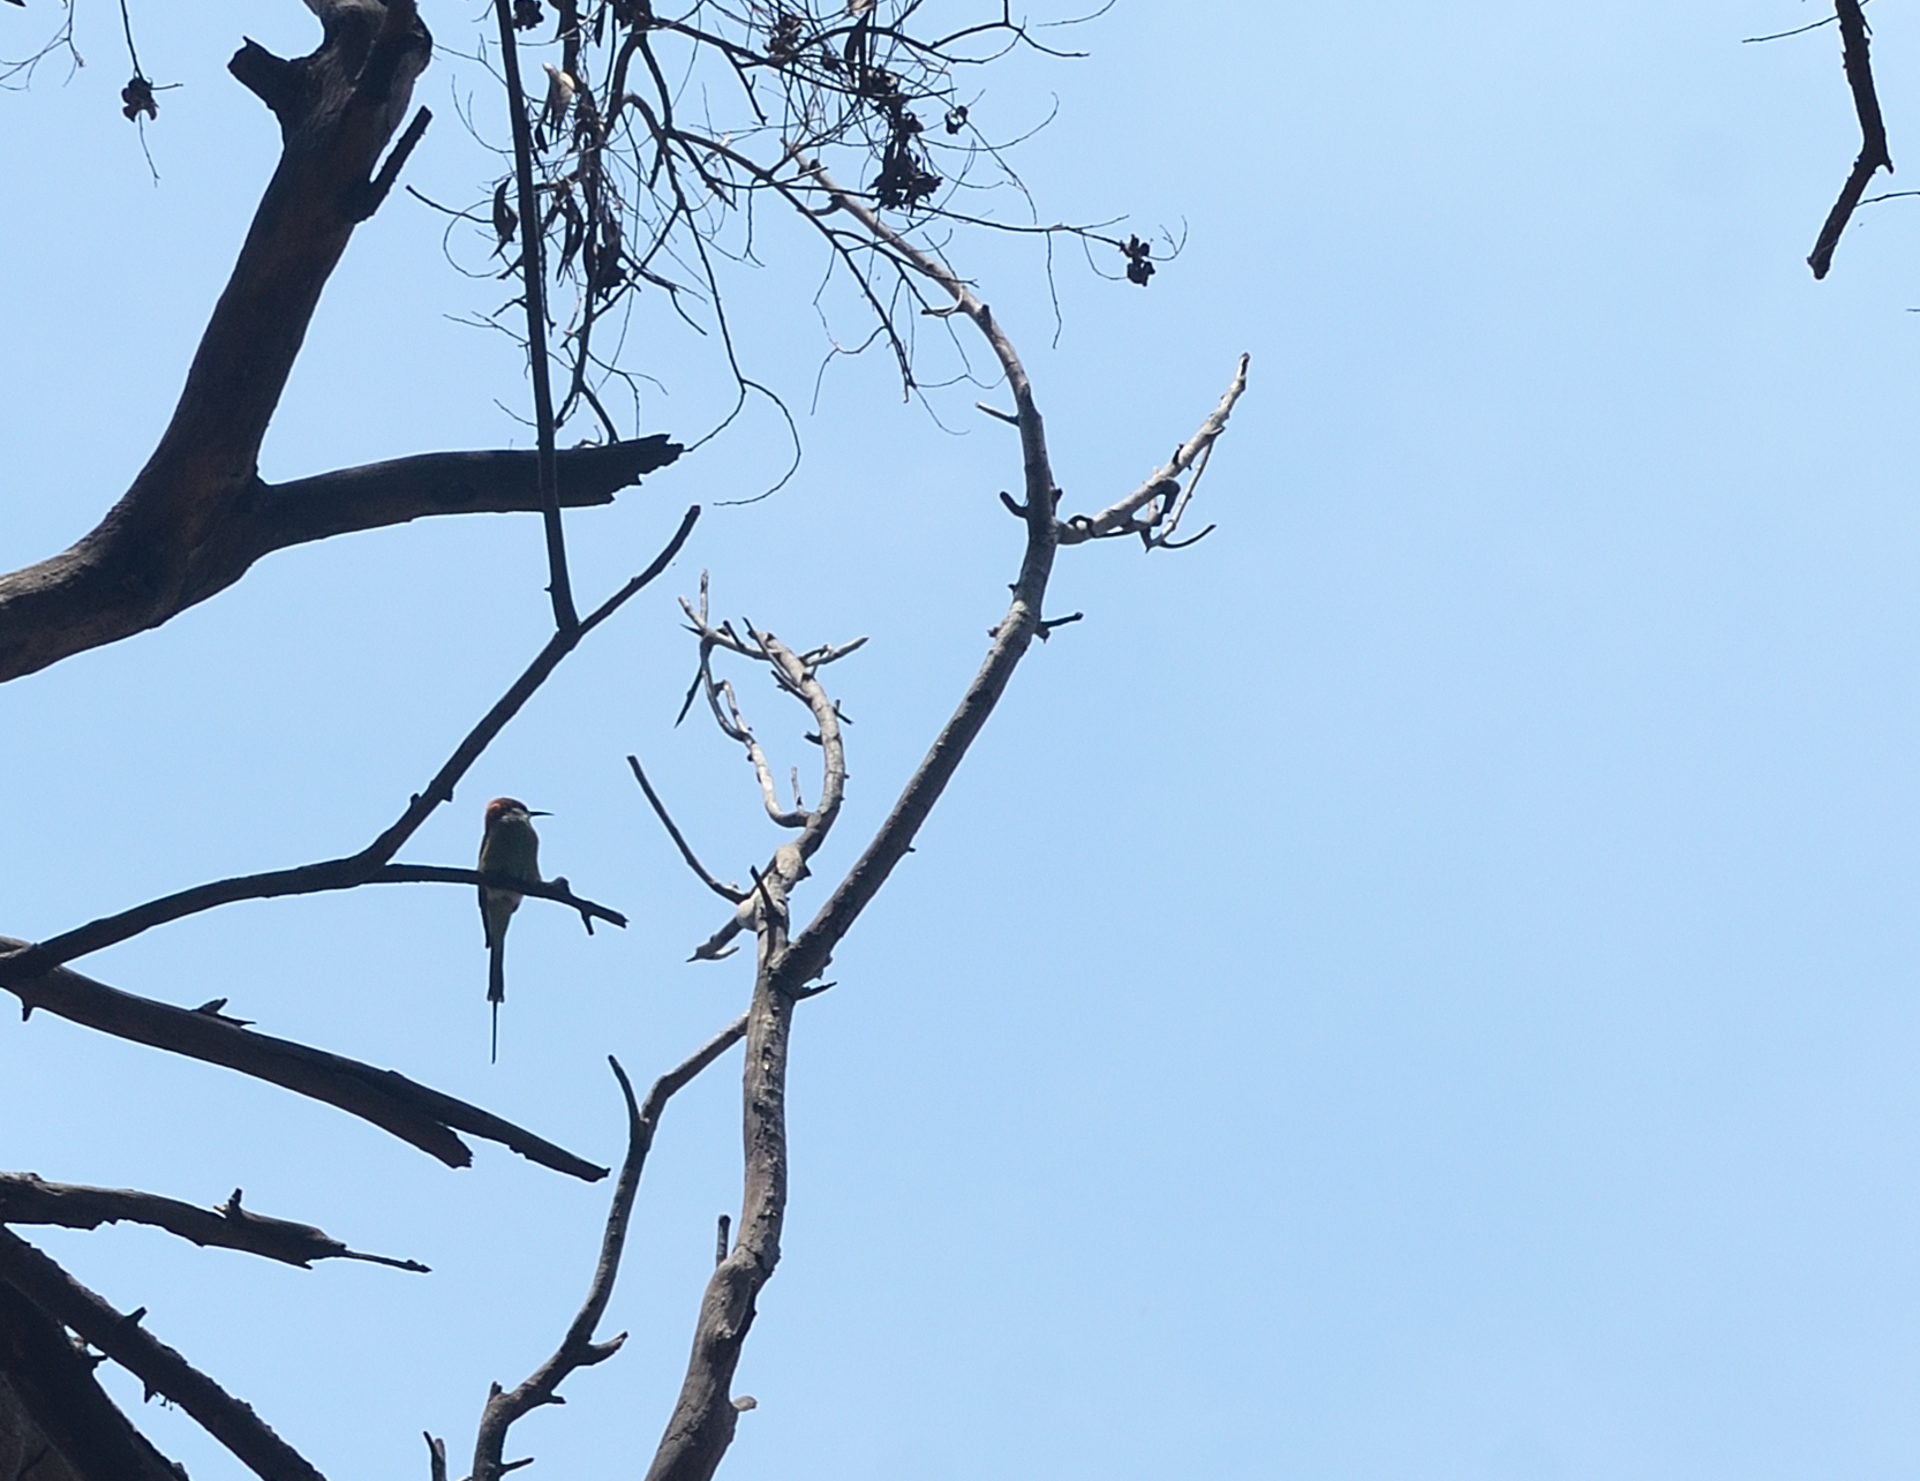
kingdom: Animalia
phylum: Chordata
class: Aves
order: Coraciiformes
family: Meropidae
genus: Merops
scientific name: Merops orientalis
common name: Green bee-eater
